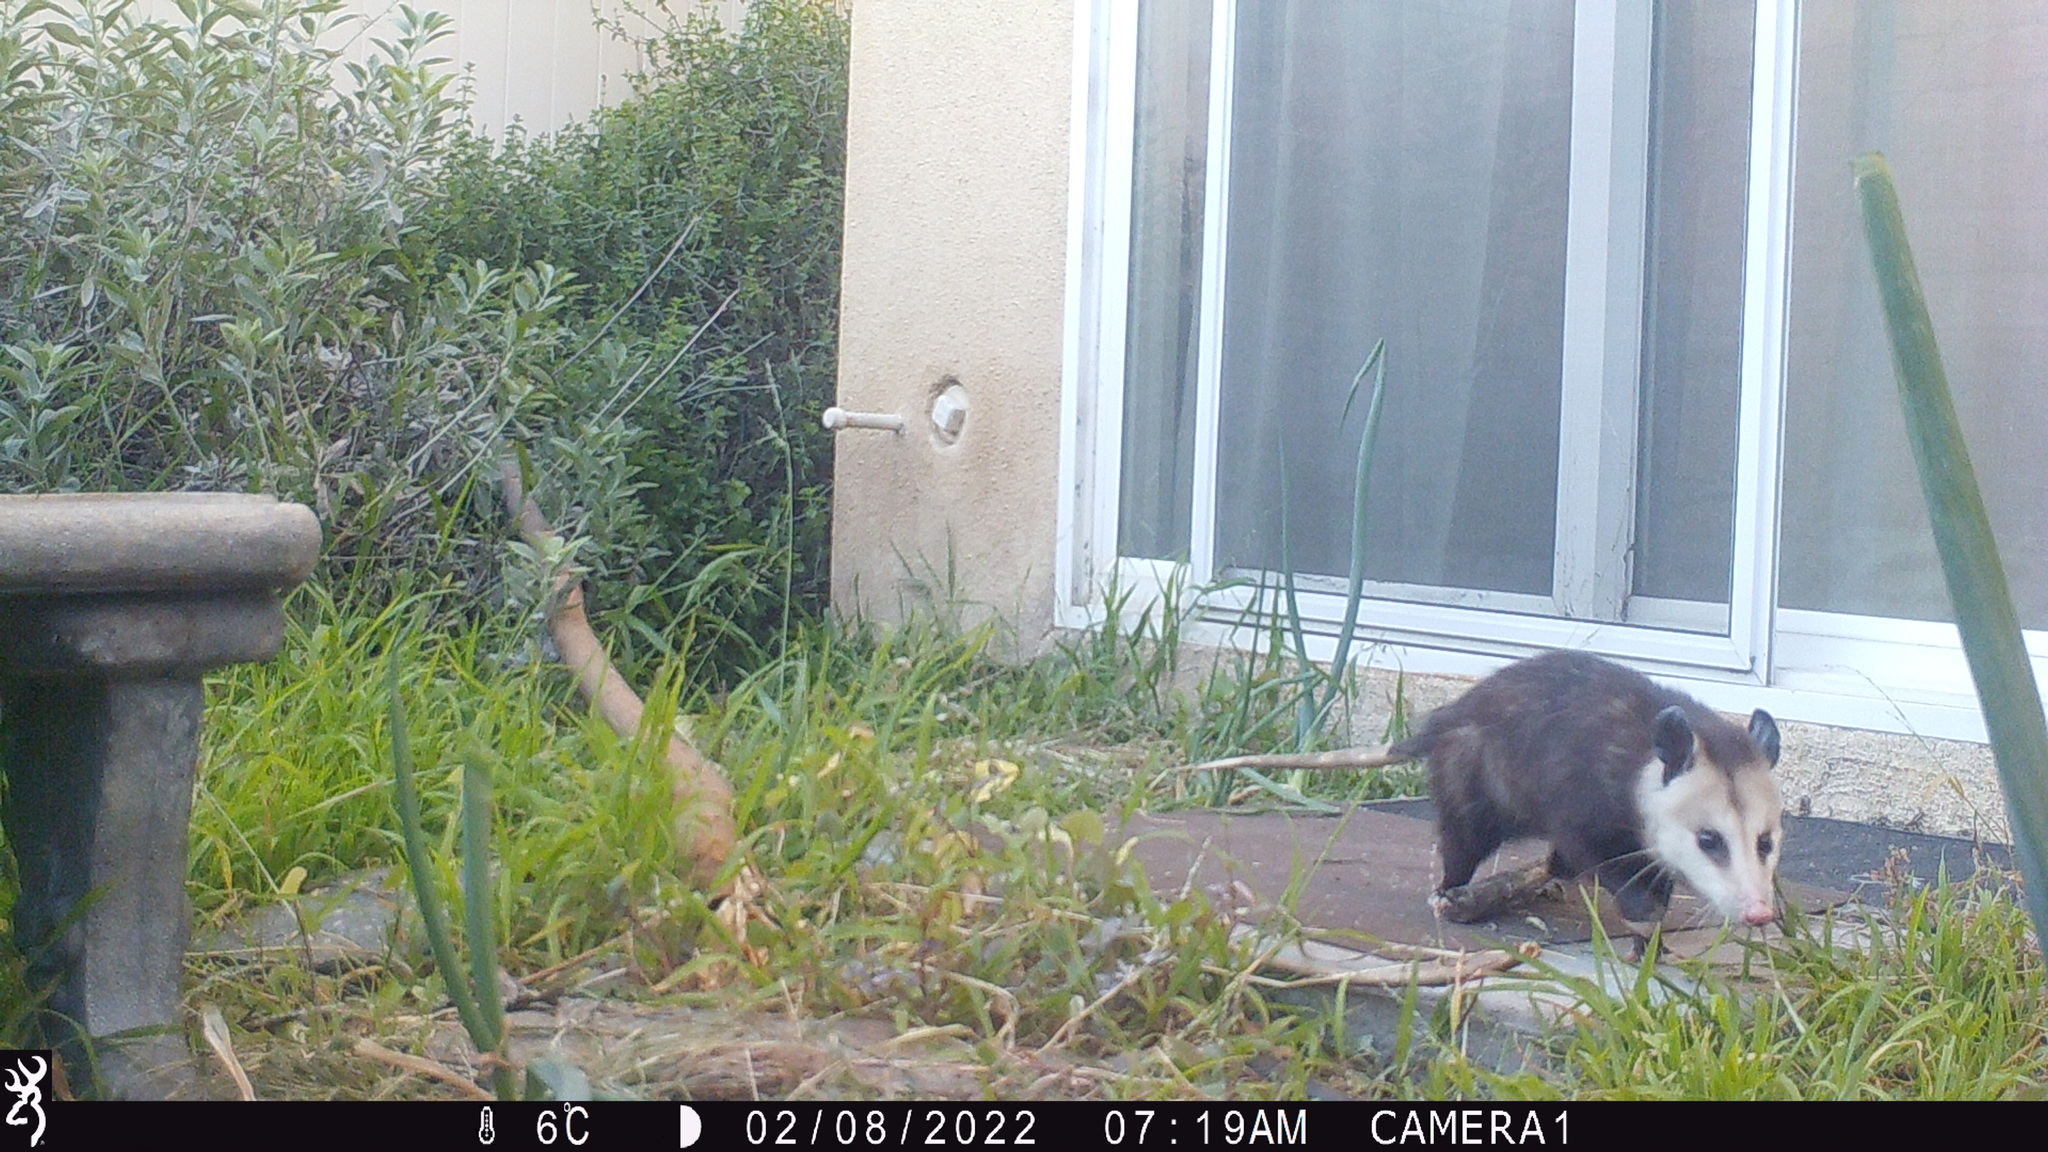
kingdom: Animalia
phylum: Chordata
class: Mammalia
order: Didelphimorphia
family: Didelphidae
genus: Didelphis
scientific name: Didelphis virginiana
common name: Virginia opossum
